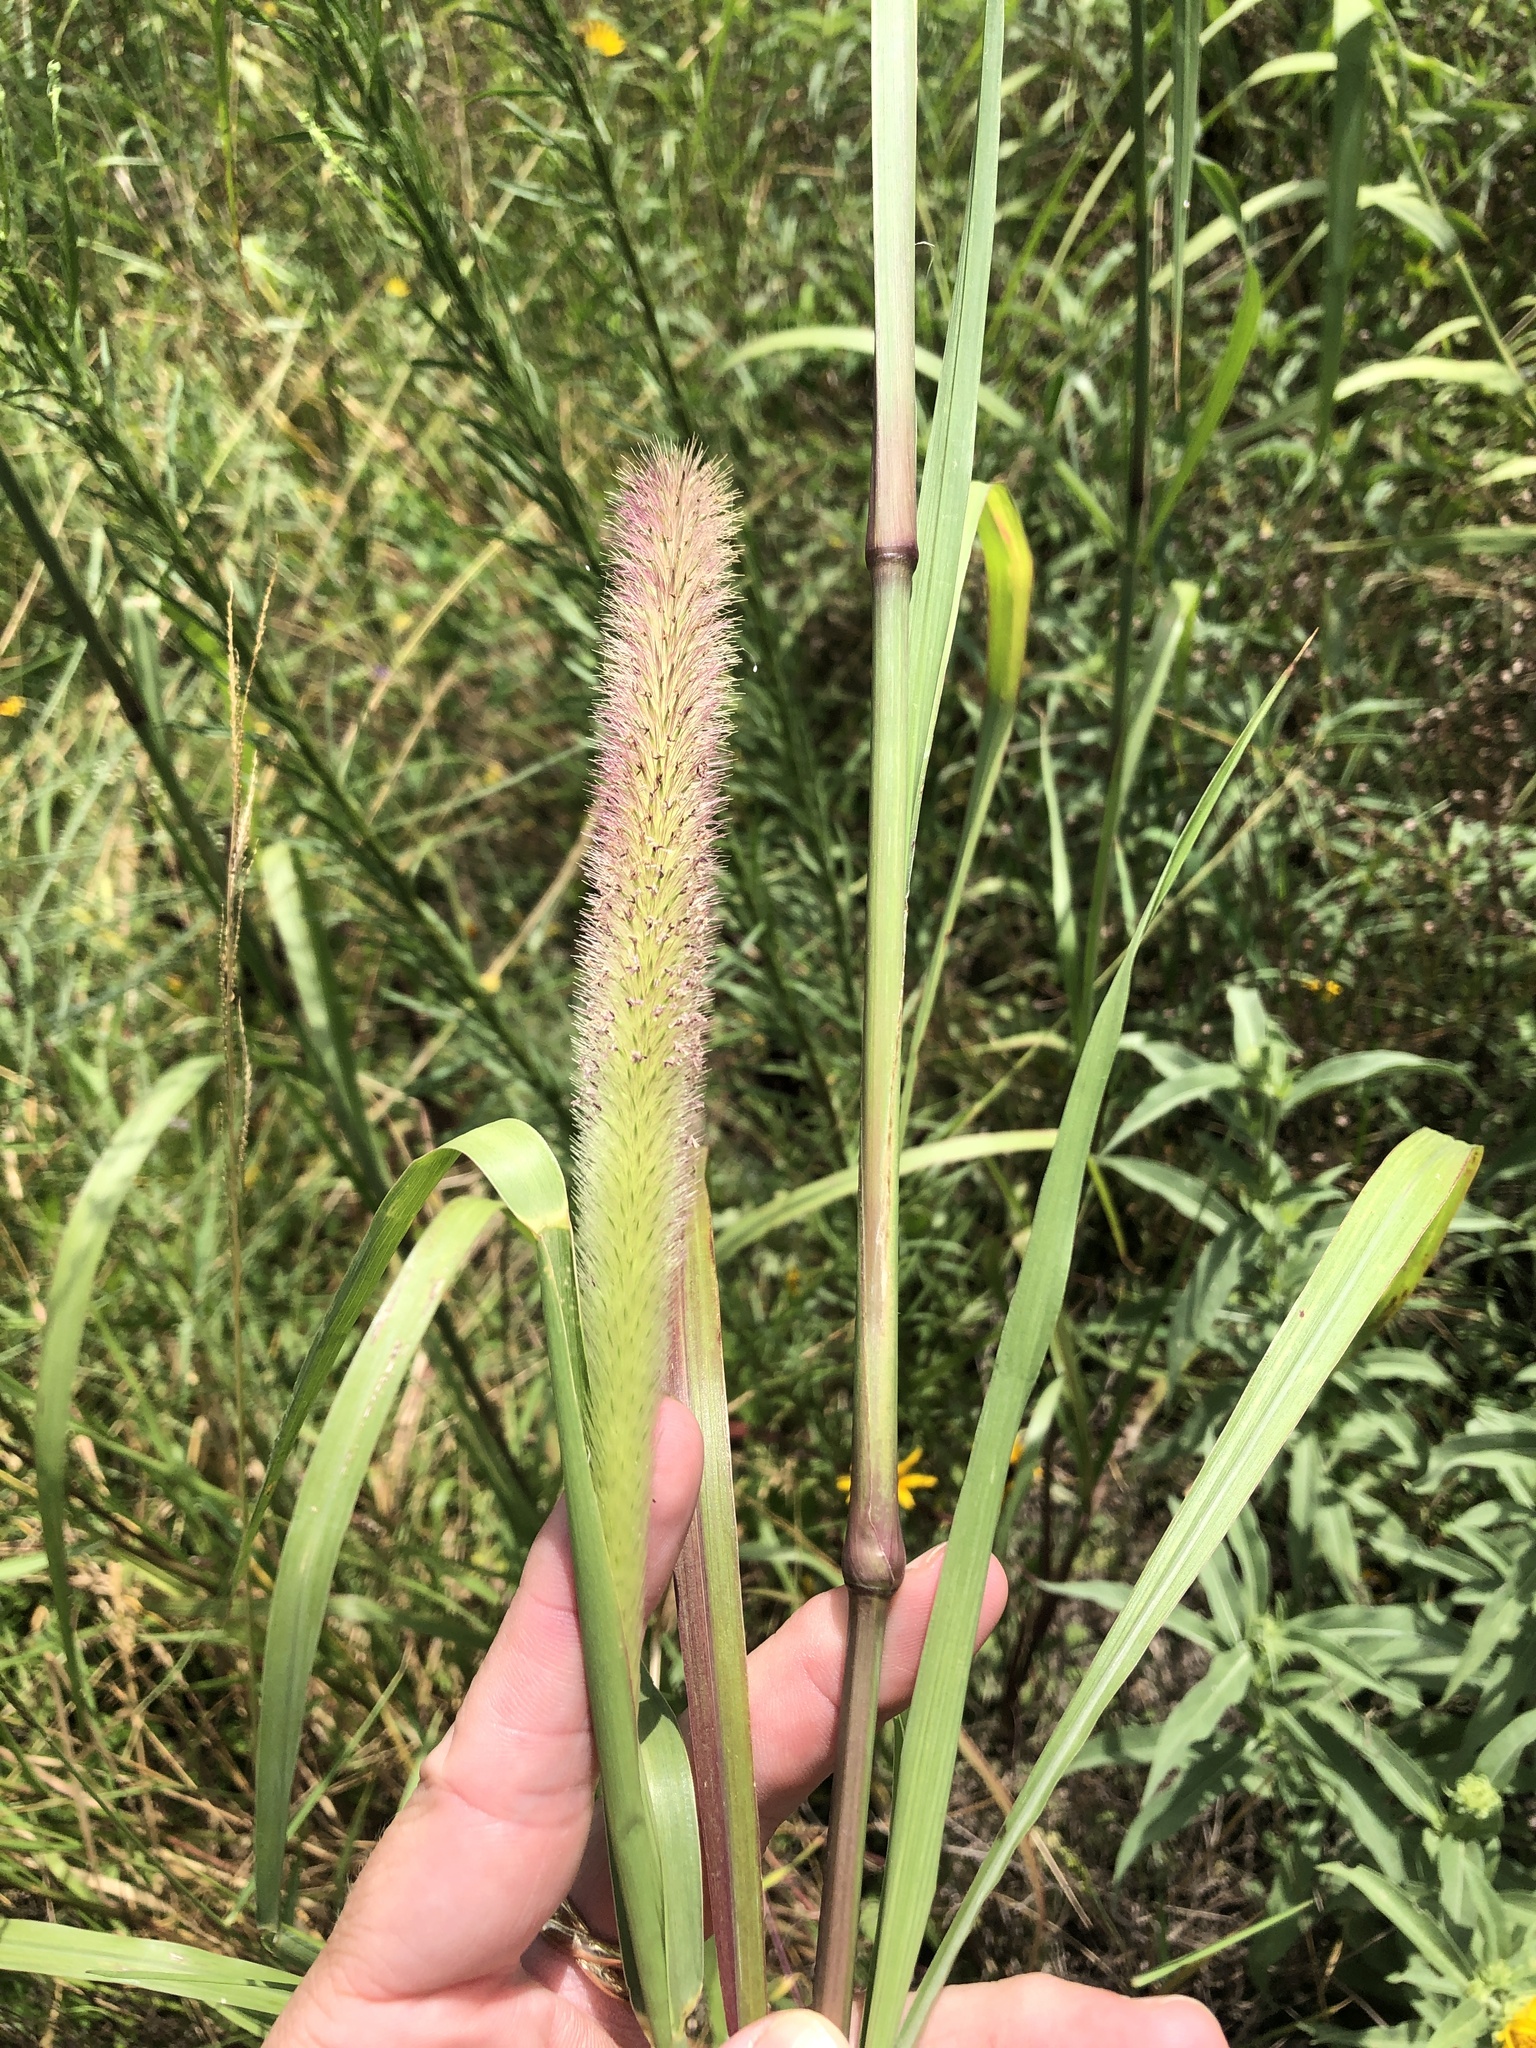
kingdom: Plantae
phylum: Tracheophyta
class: Liliopsida
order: Poales
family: Poaceae
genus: Cenchrus
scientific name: Cenchrus nervosus
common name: Bentspike fountaingrass
